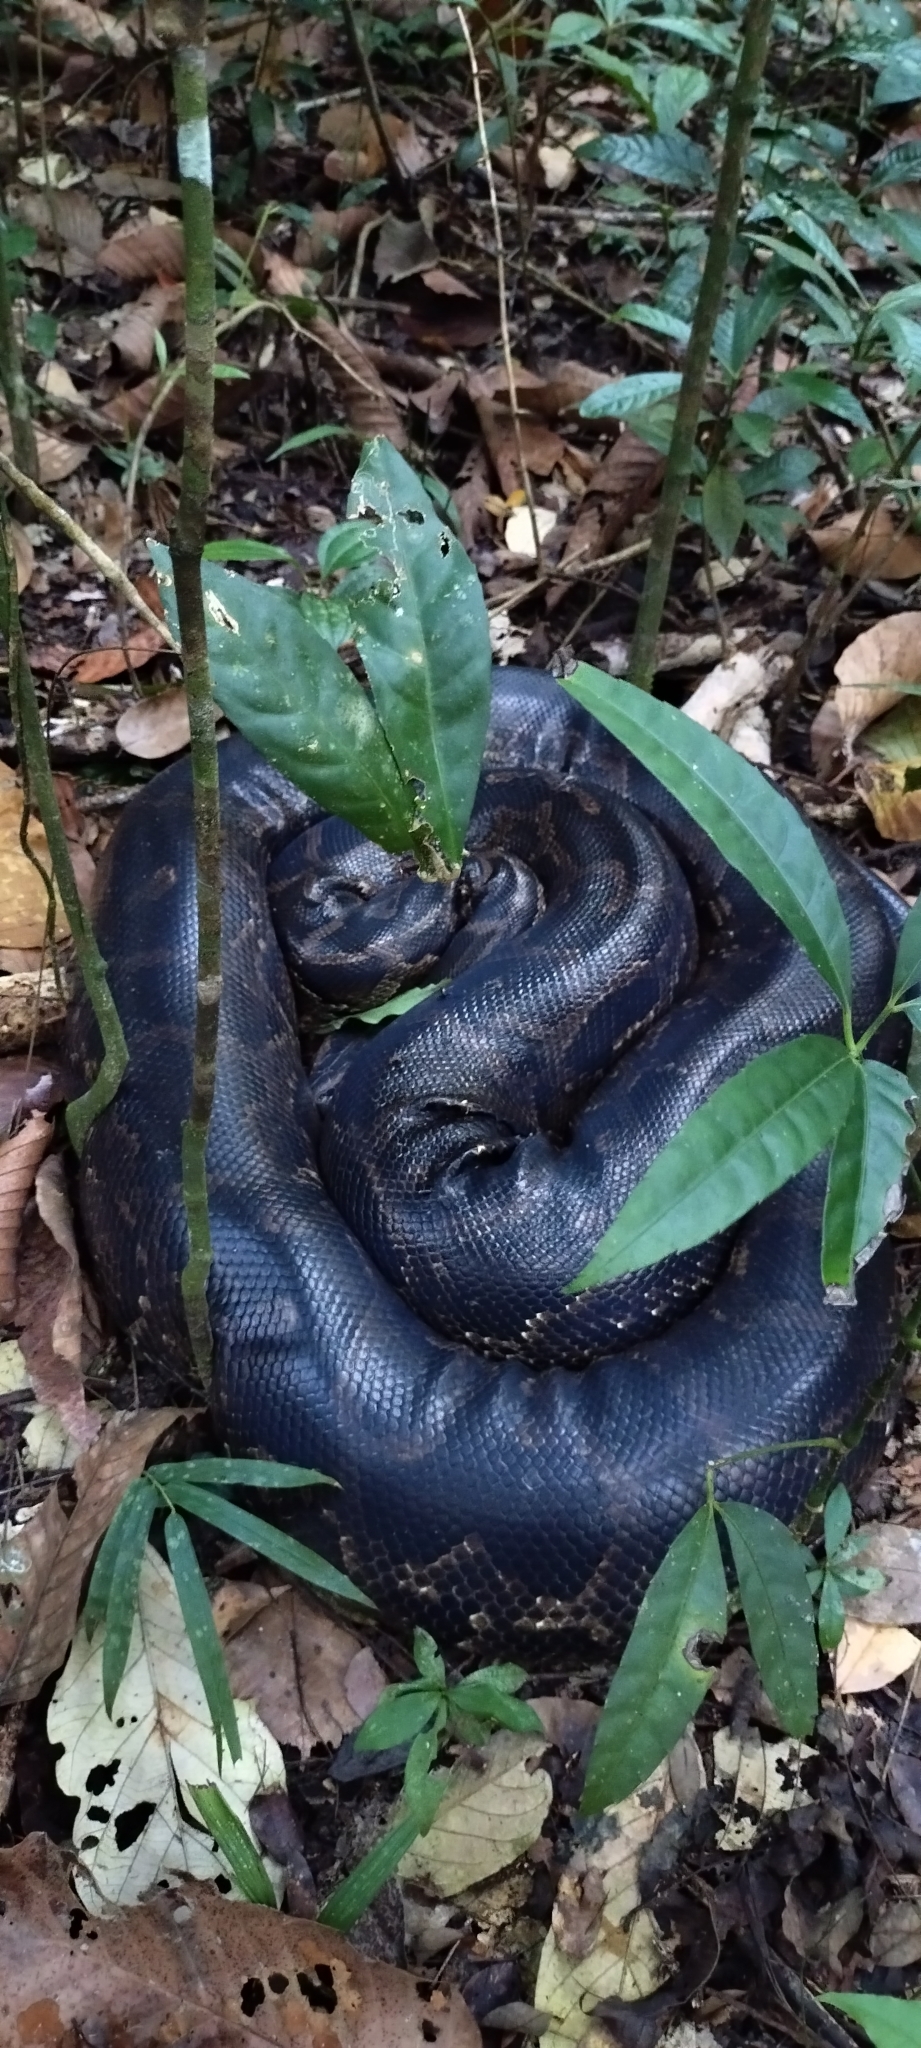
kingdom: Animalia
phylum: Chordata
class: Squamata
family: Pythonidae
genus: Python
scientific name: Python bivittatus
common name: Burmese python
